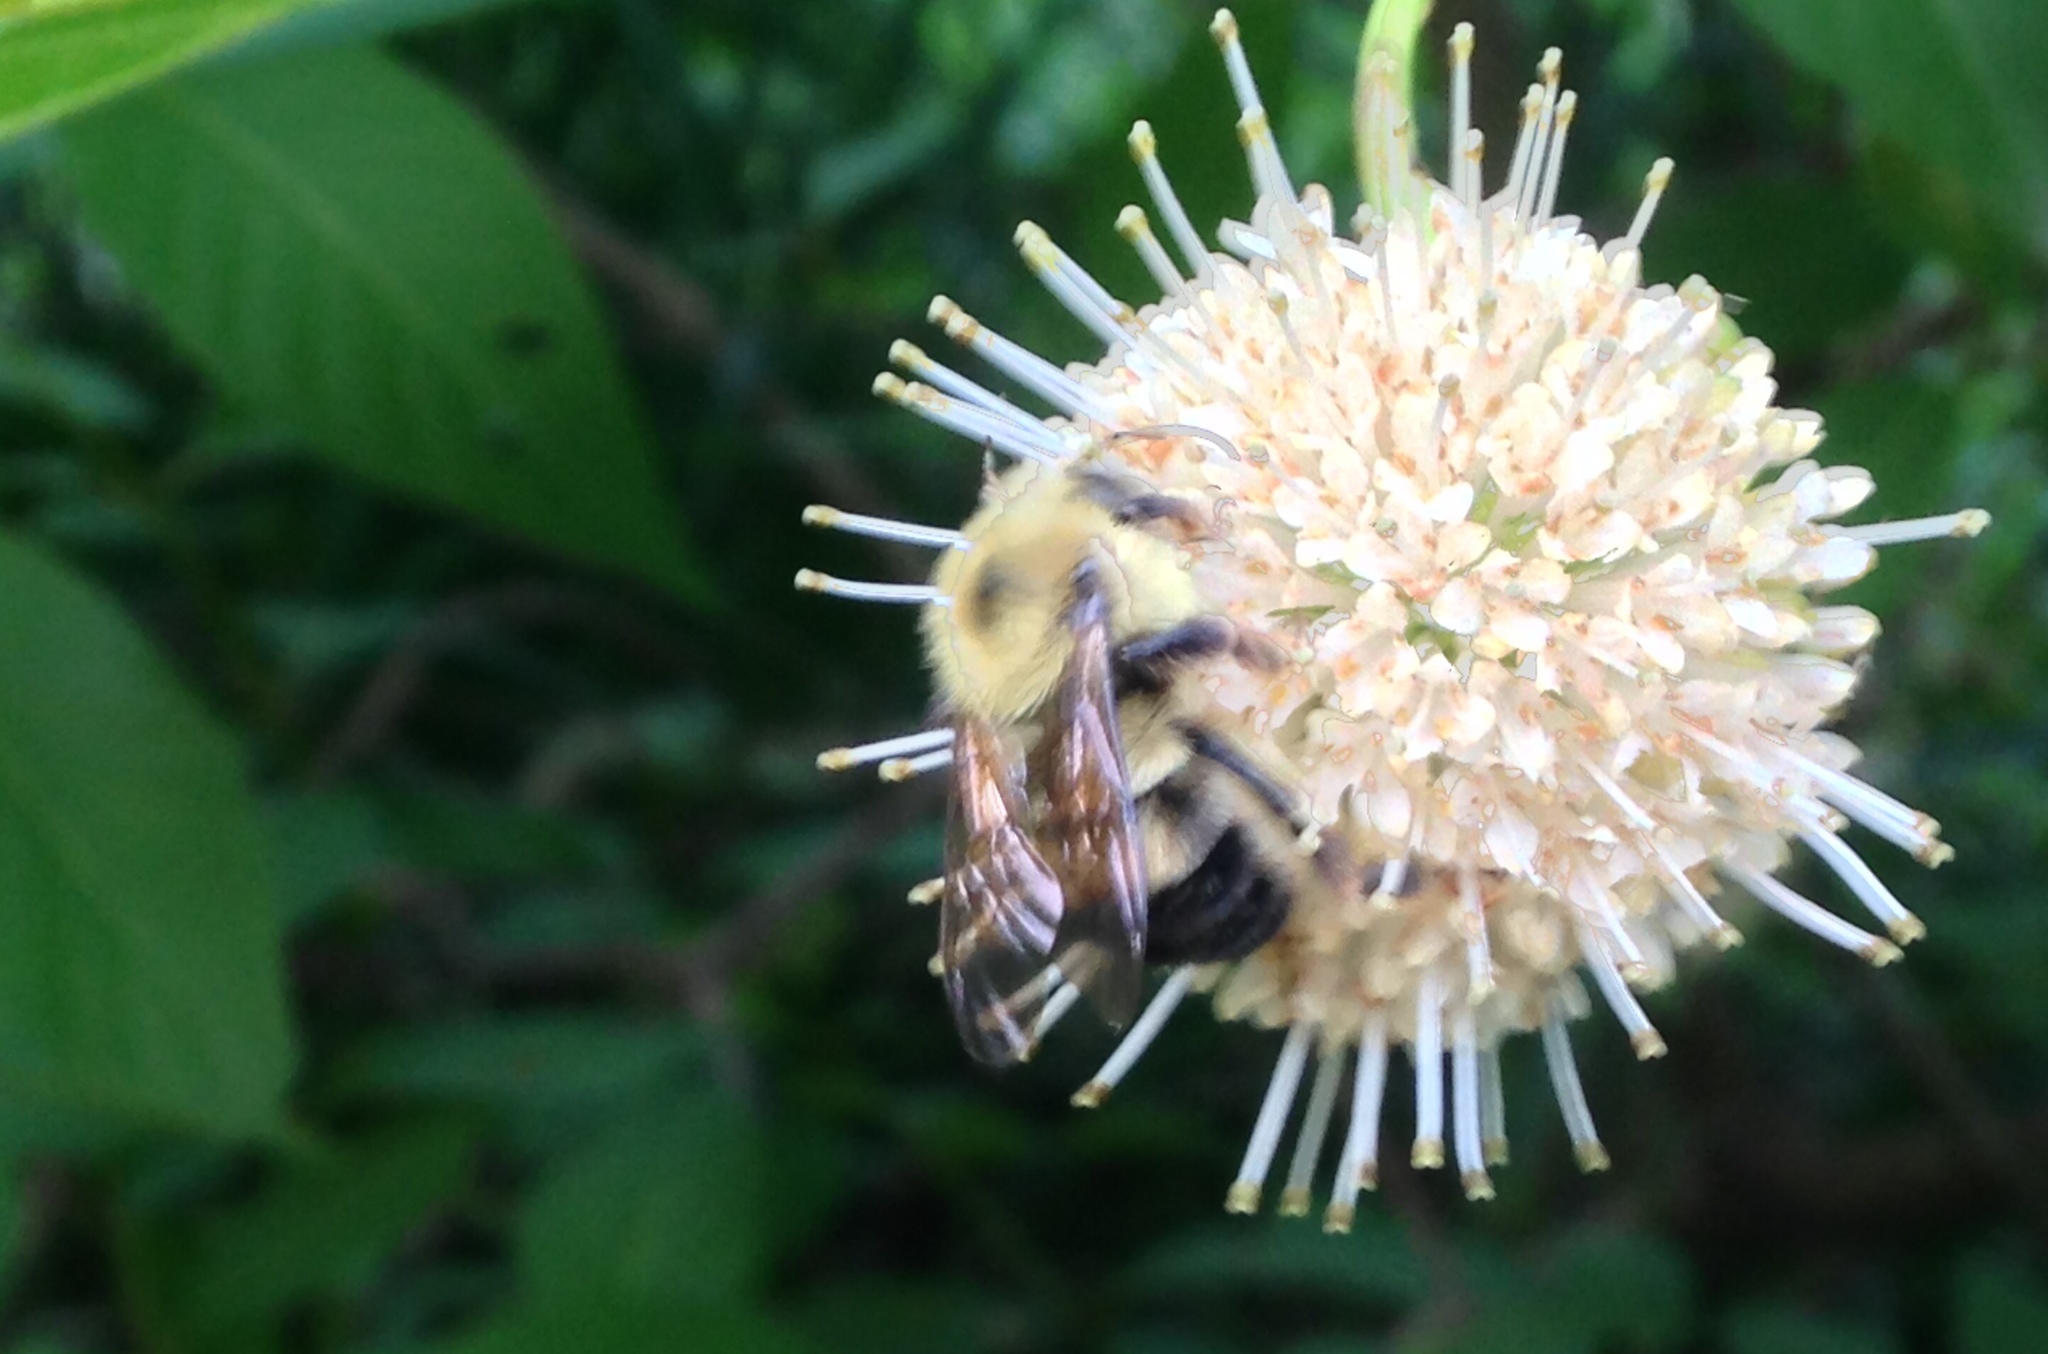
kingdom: Animalia
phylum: Arthropoda
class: Insecta
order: Hymenoptera
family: Apidae
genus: Bombus
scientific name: Bombus bimaculatus
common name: Two-spotted bumble bee
